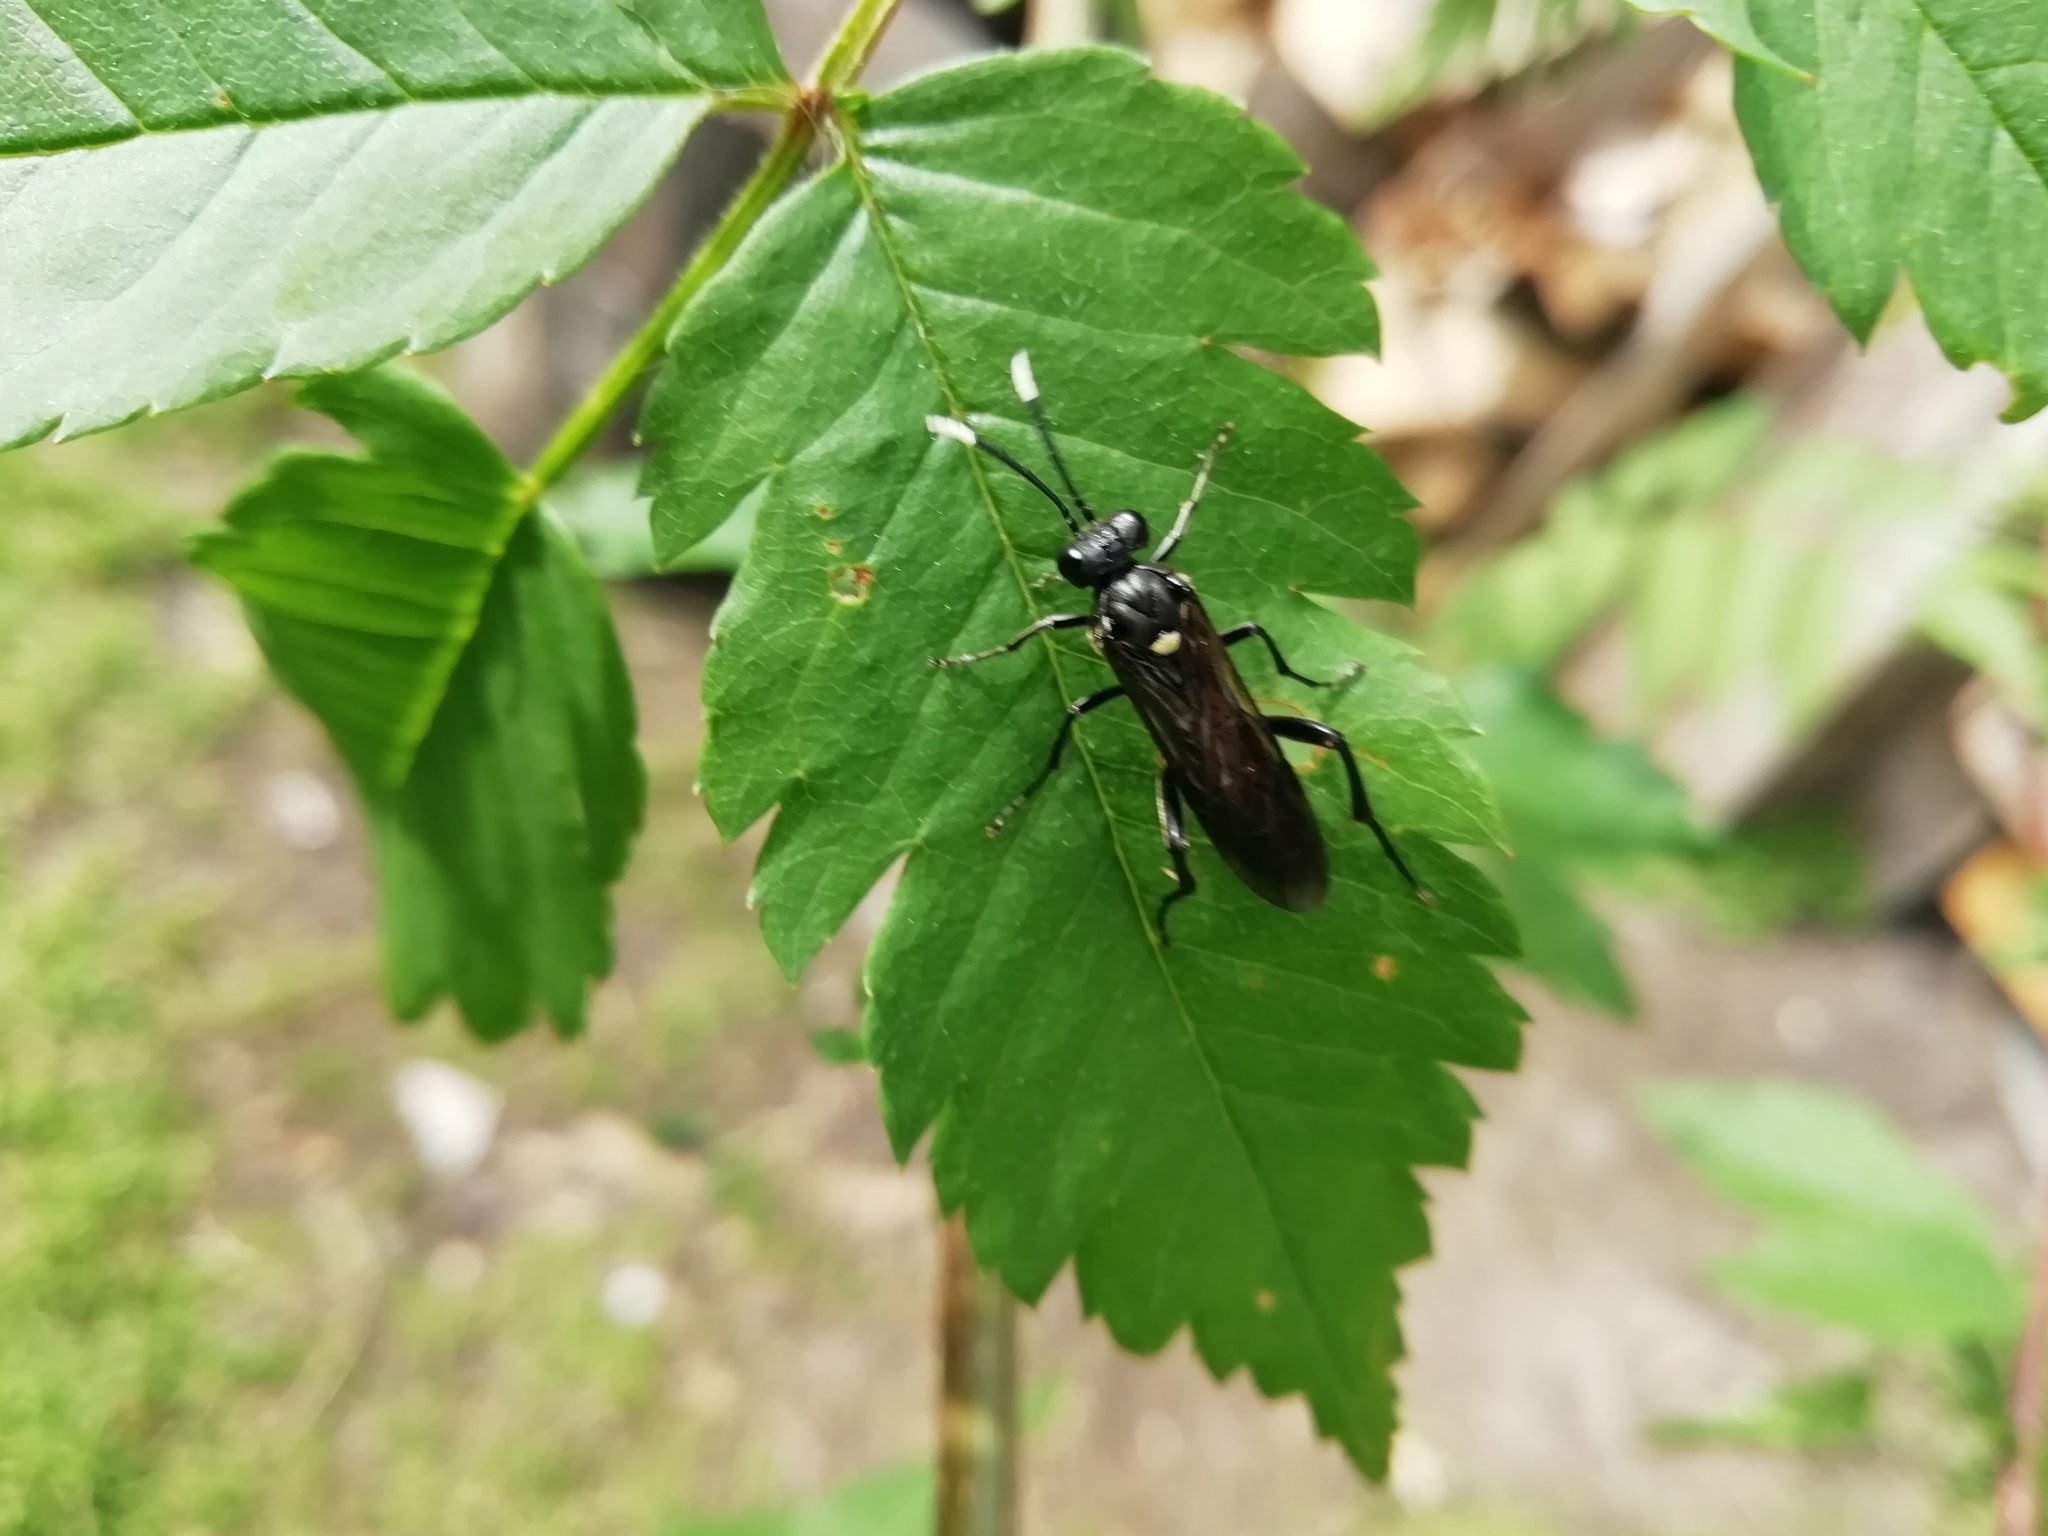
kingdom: Animalia
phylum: Arthropoda
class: Insecta
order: Hymenoptera
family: Tenthredinidae
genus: Macrophya
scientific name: Macrophya infumata
